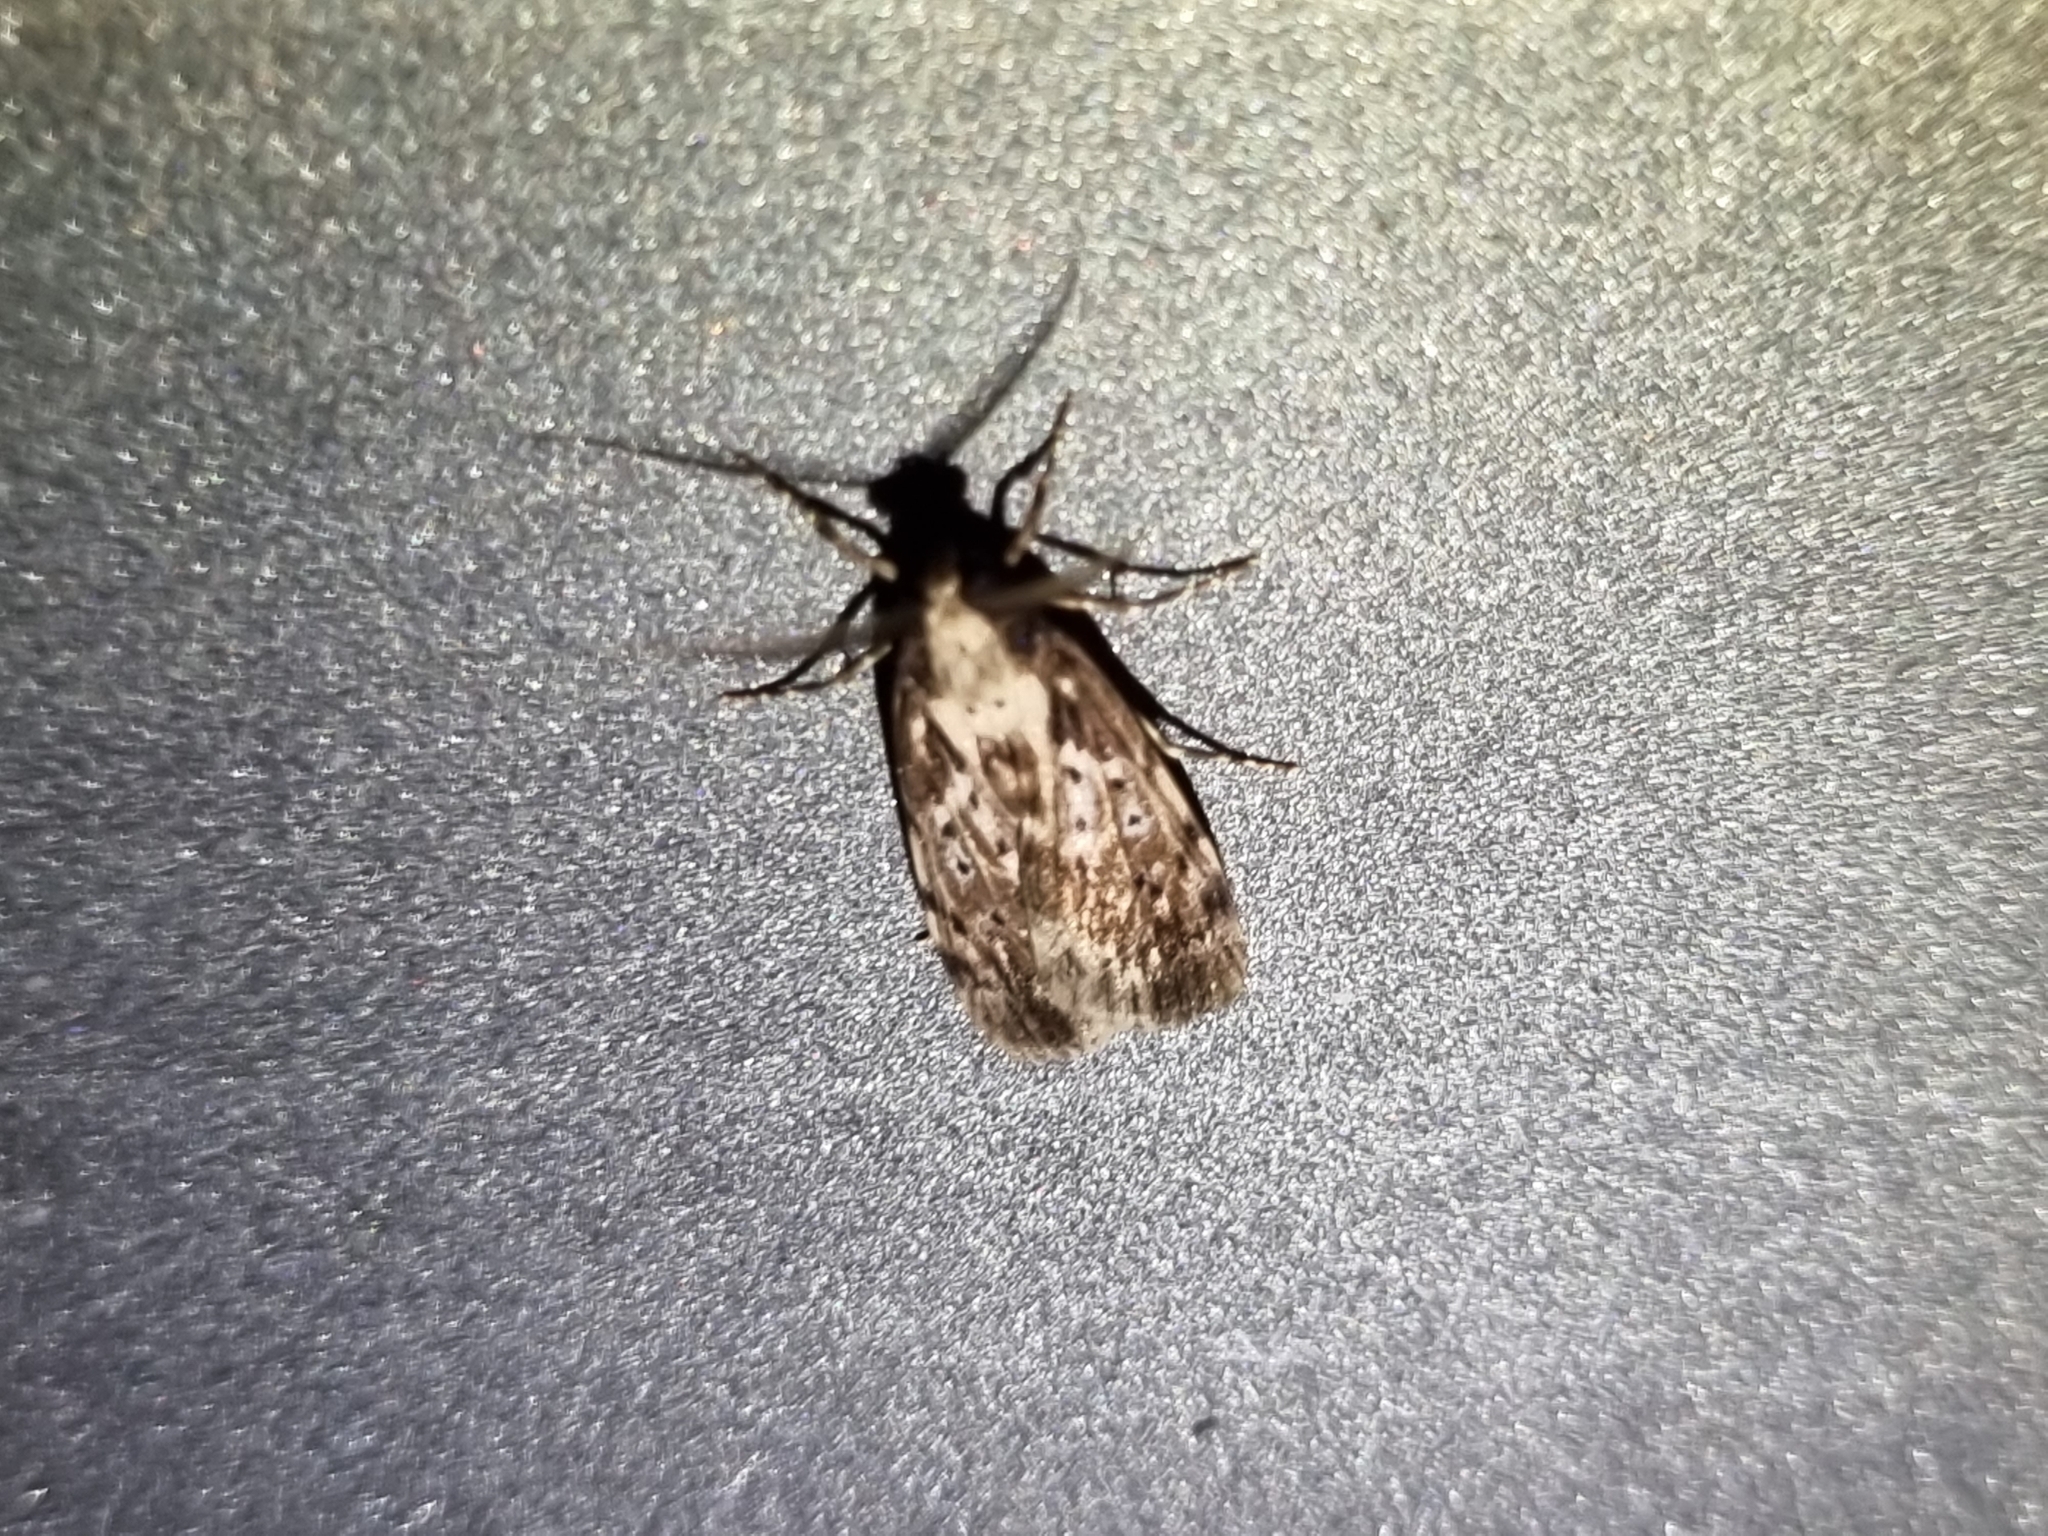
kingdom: Animalia
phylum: Arthropoda
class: Insecta
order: Lepidoptera
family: Erebidae
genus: Digama
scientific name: Digama Sommeria marmorea
